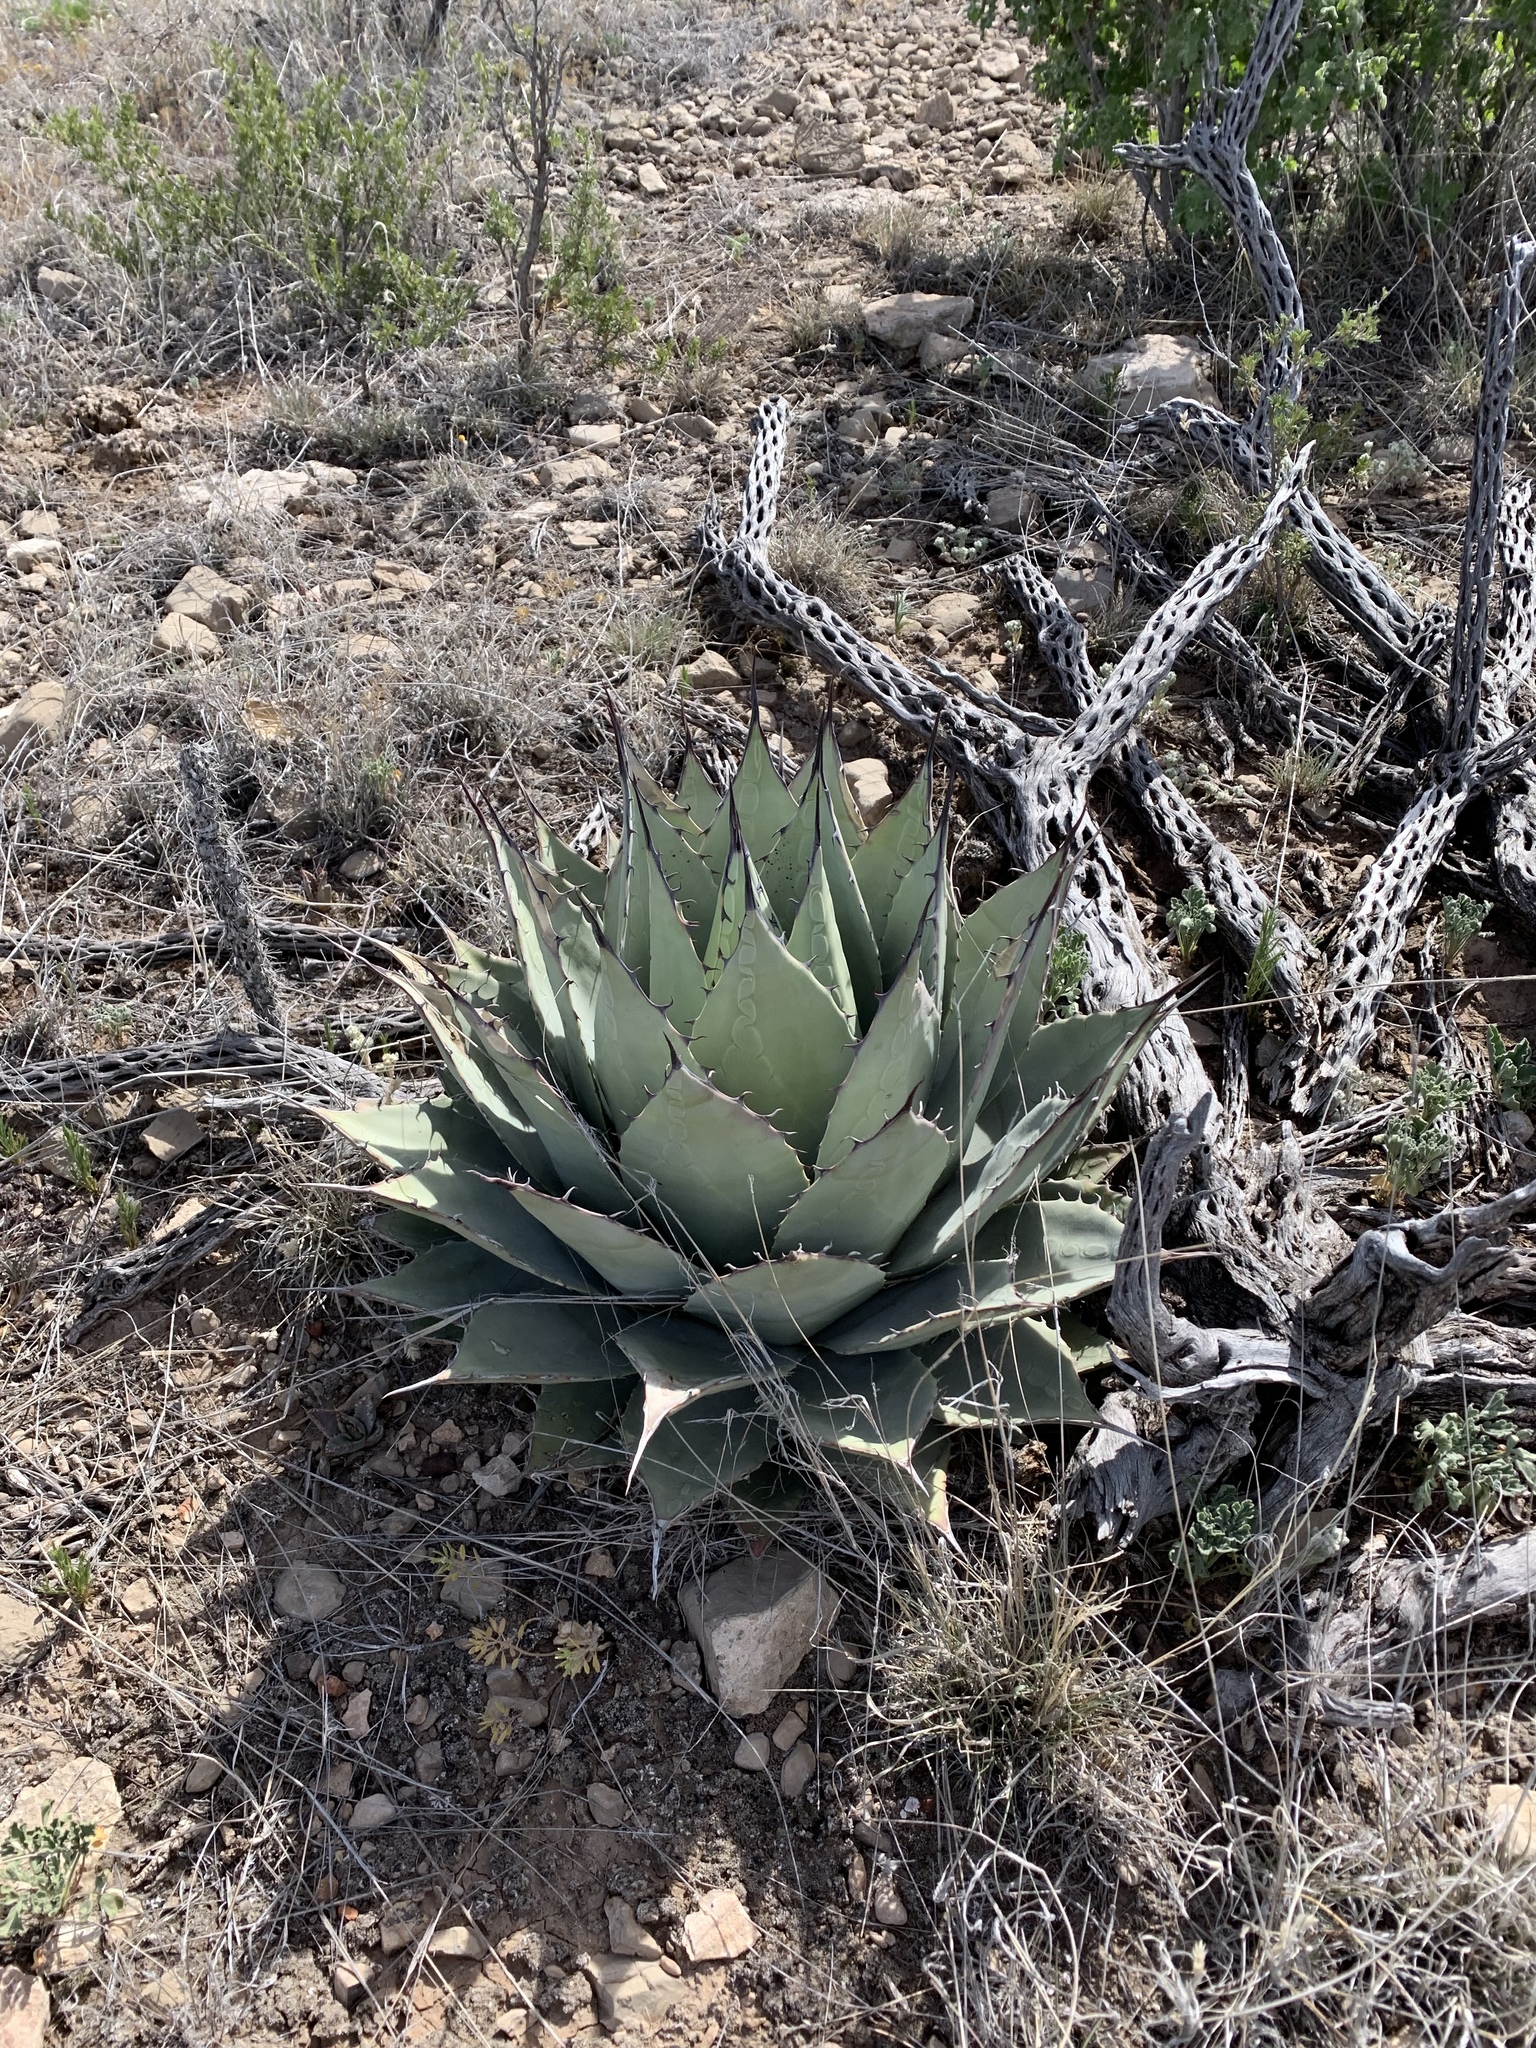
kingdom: Plantae
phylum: Tracheophyta
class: Liliopsida
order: Asparagales
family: Asparagaceae
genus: Agave
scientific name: Agave parryi
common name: Parry's agave
